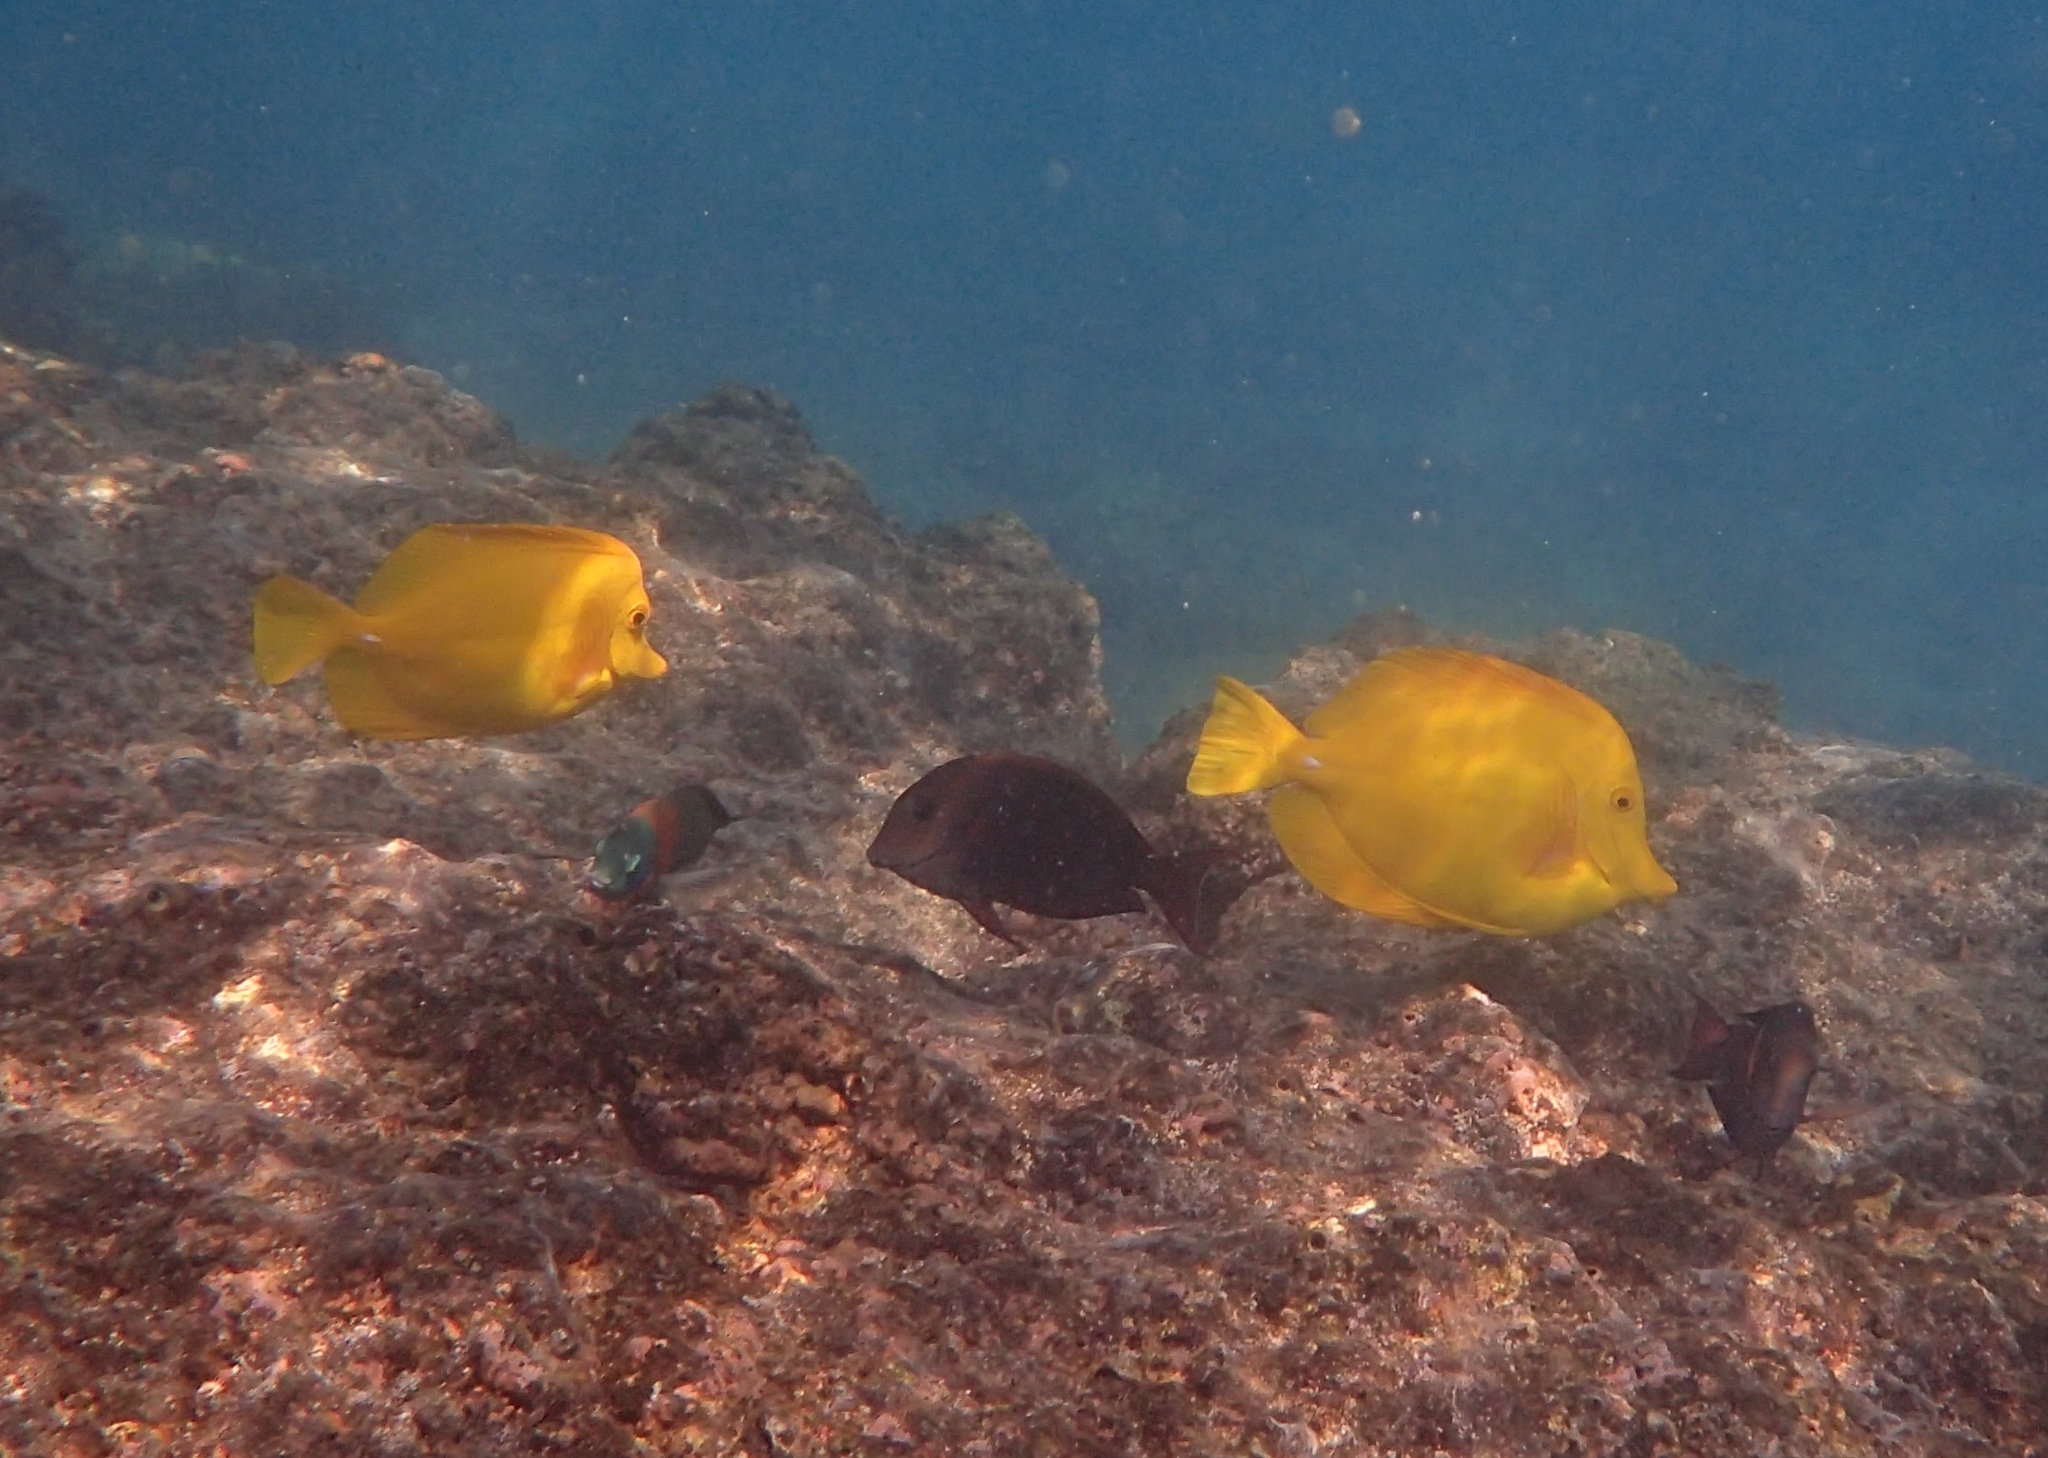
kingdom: Animalia
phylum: Chordata
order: Perciformes
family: Acanthuridae
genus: Zebrasoma
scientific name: Zebrasoma flavescens
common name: Yellow tang
